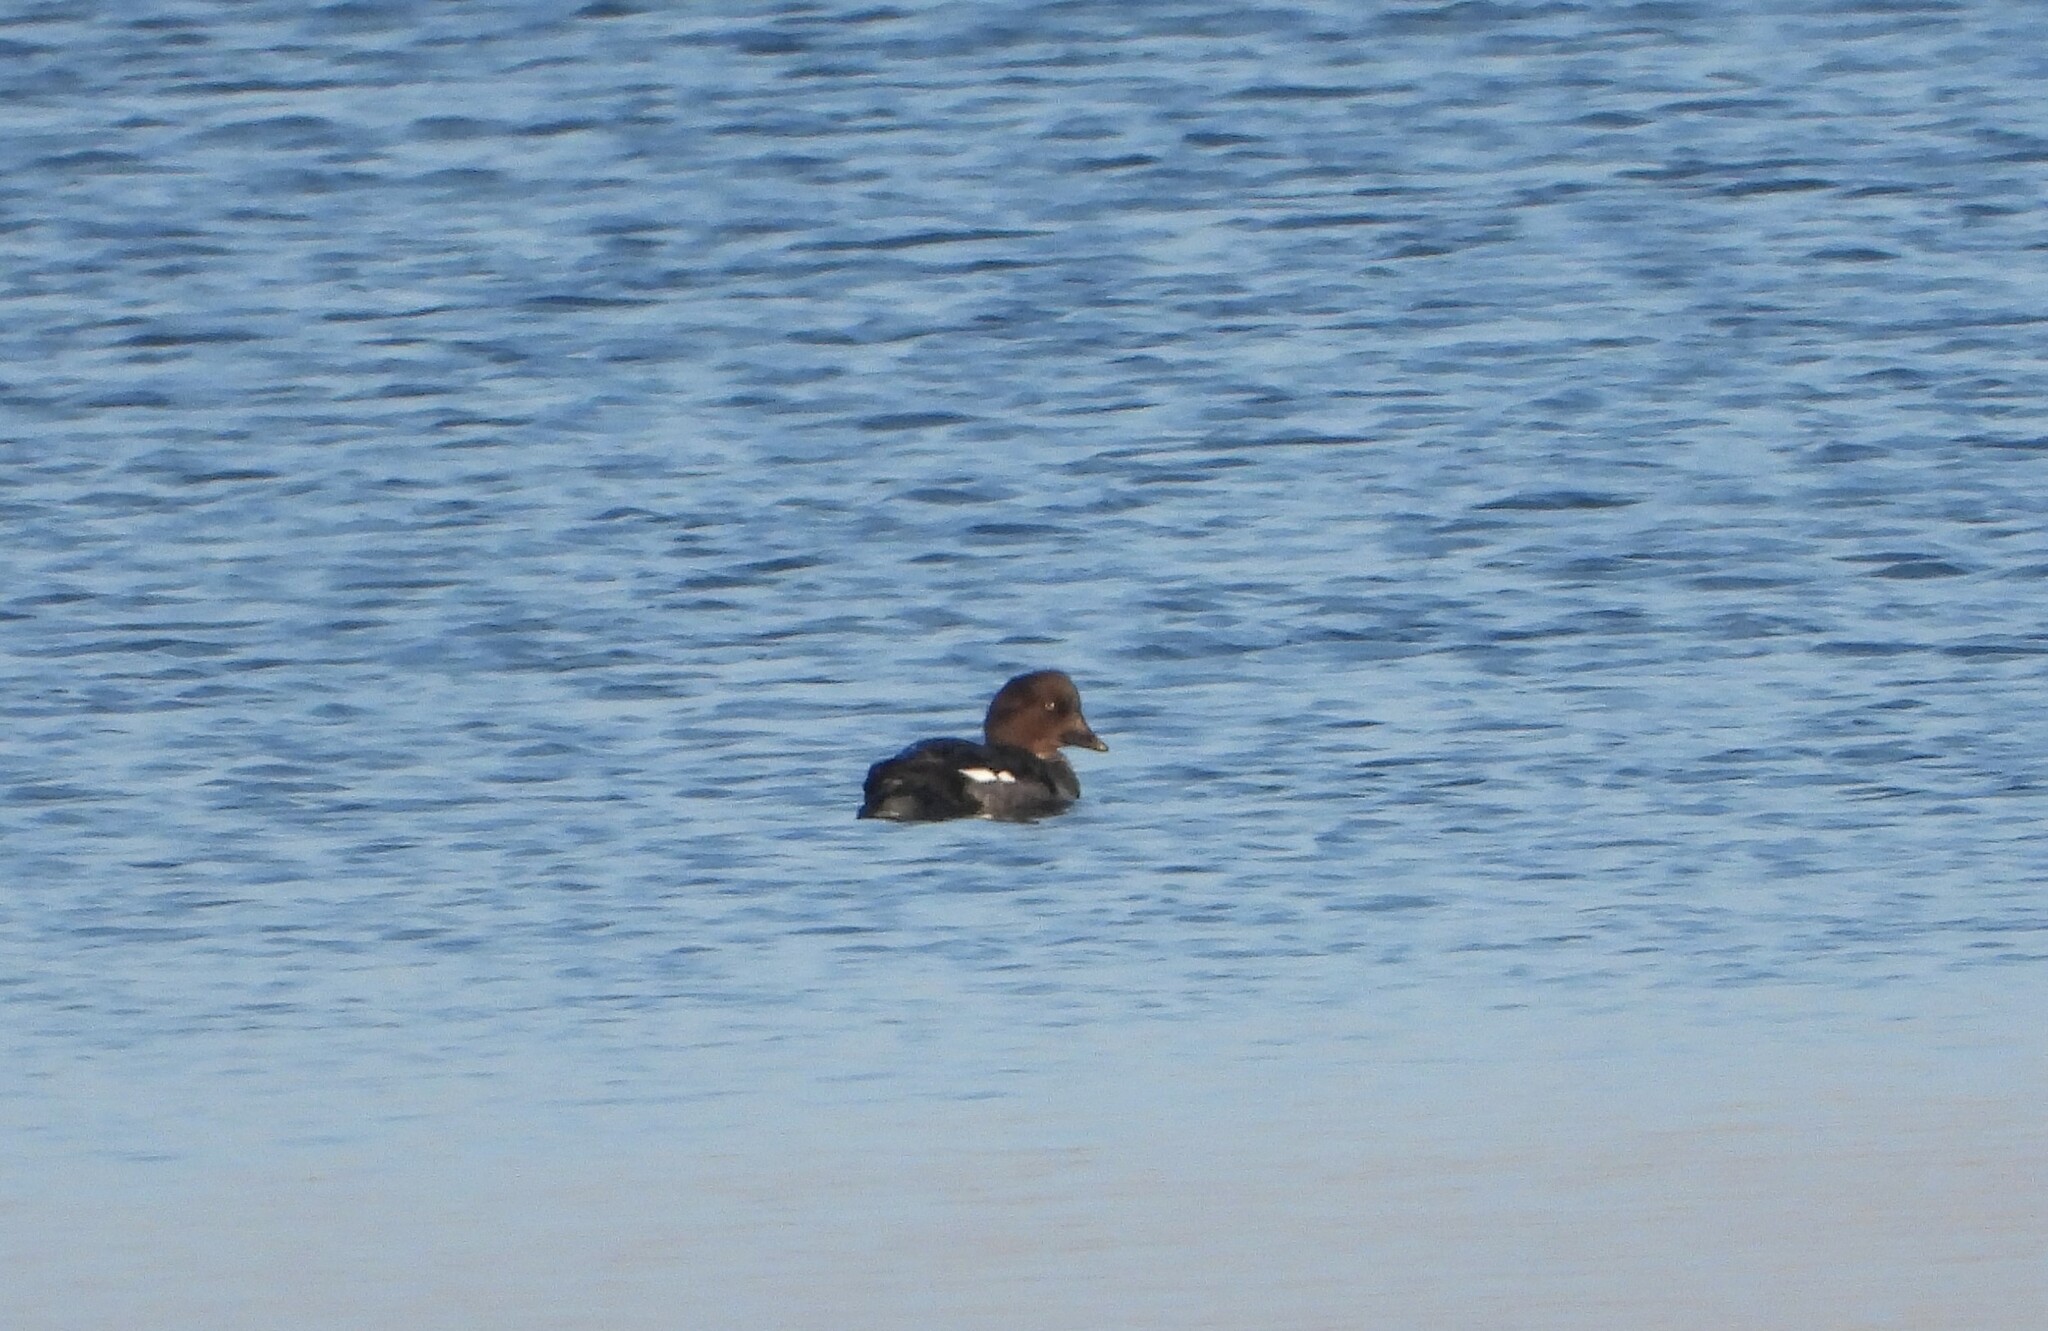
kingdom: Animalia
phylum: Chordata
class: Aves
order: Anseriformes
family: Anatidae
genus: Bucephala
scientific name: Bucephala clangula
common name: Common goldeneye
